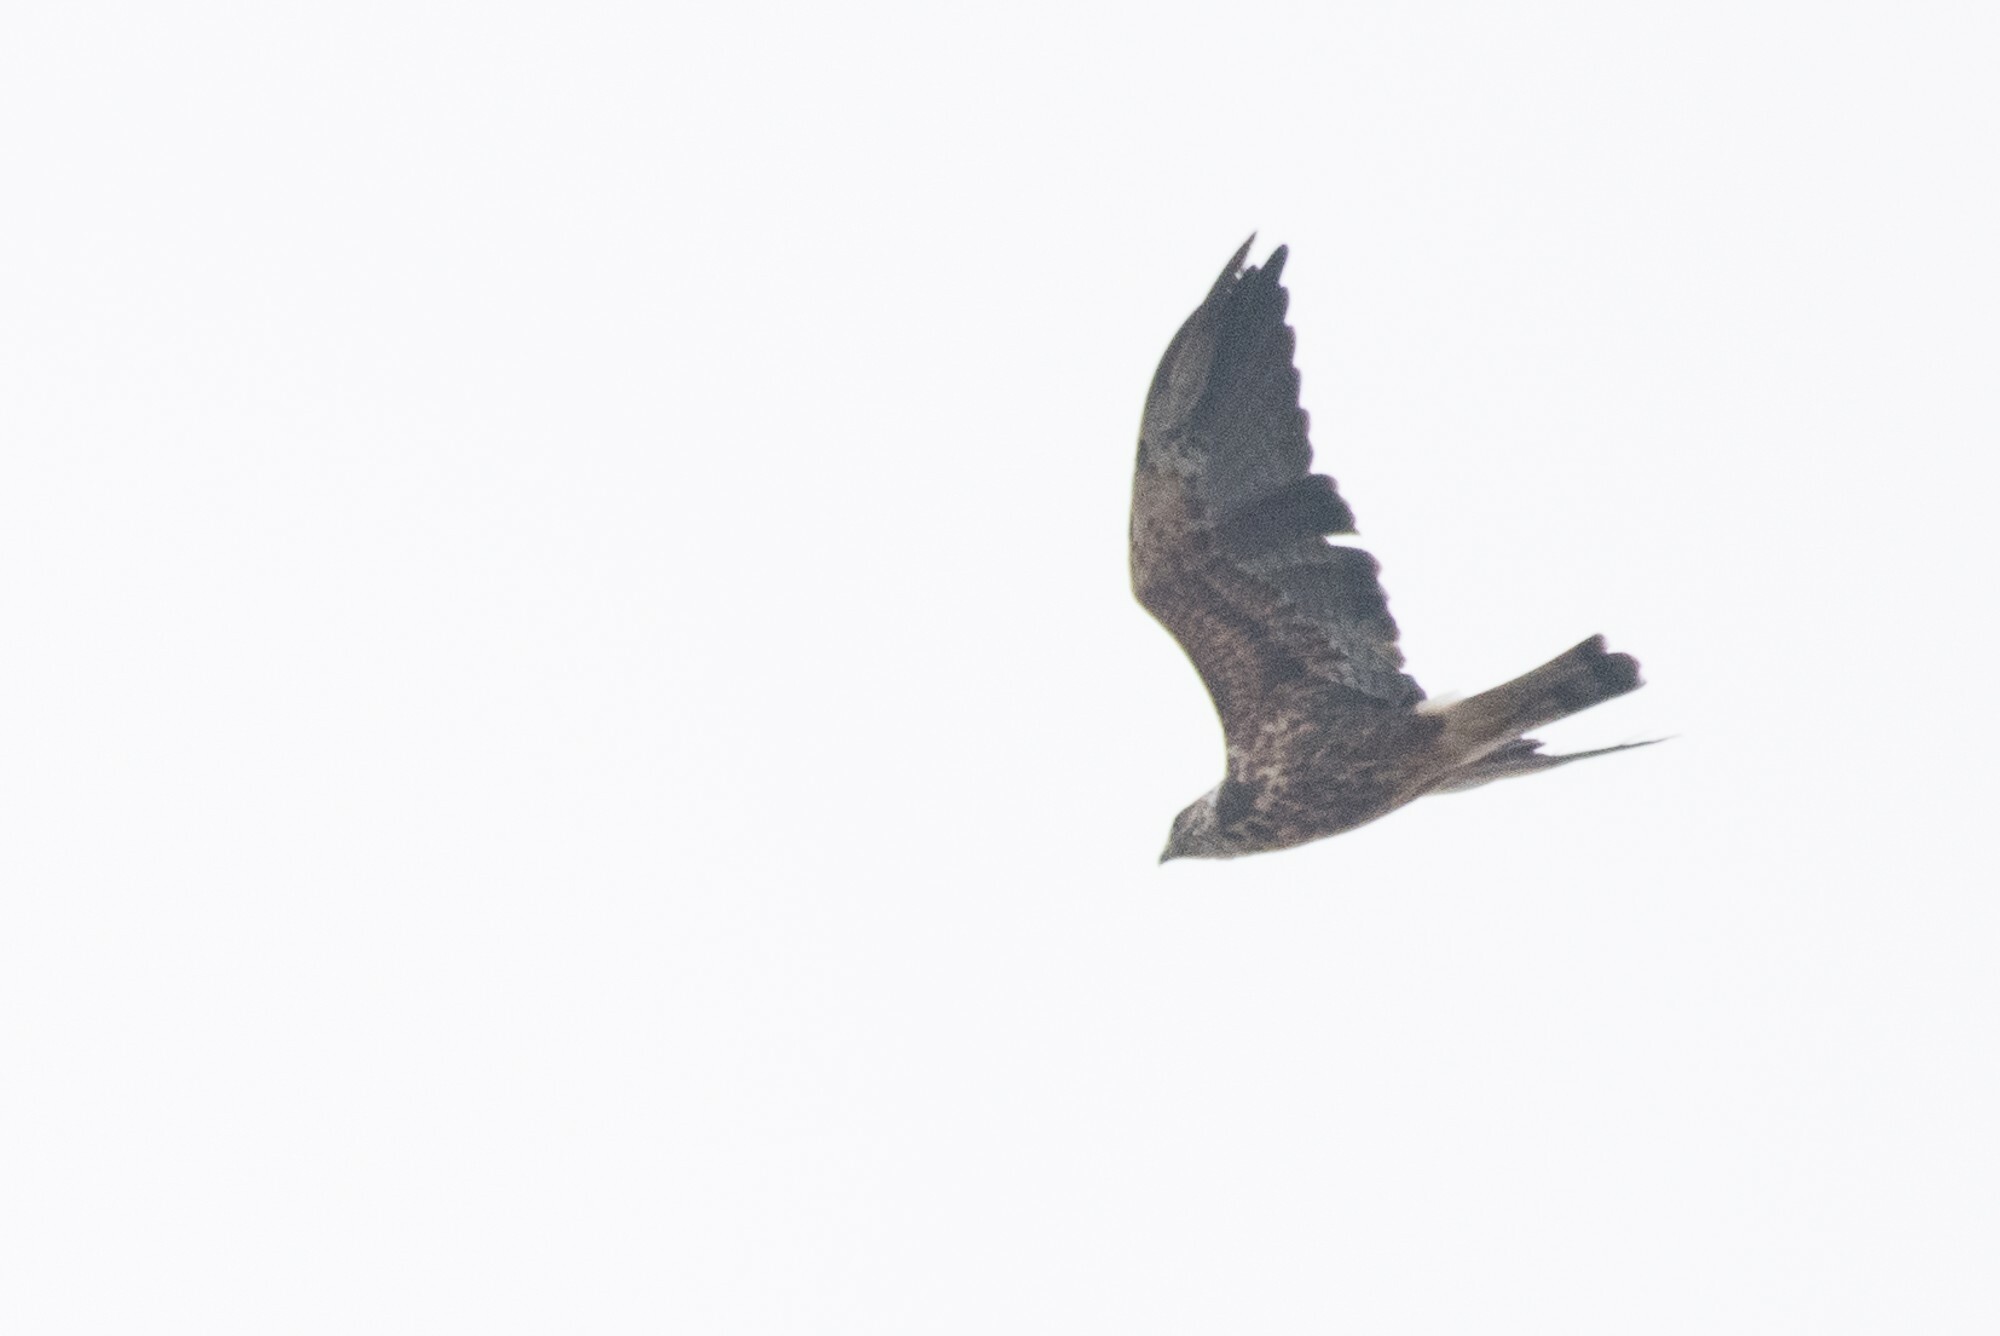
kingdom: Animalia
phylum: Chordata
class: Aves
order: Accipitriformes
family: Accipitridae
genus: Buteo
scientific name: Buteo swainsoni
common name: Swainson's hawk
